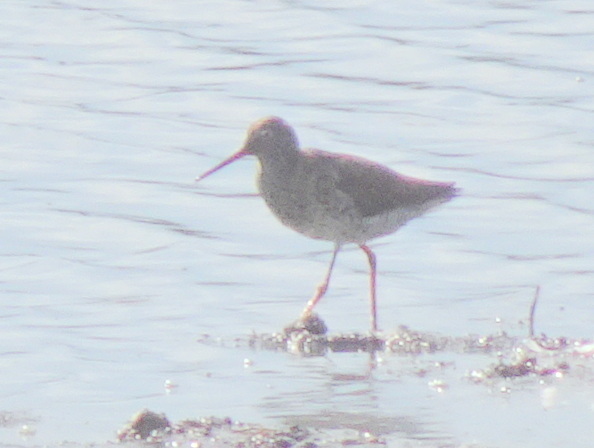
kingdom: Animalia
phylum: Chordata
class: Aves
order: Charadriiformes
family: Scolopacidae
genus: Tringa
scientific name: Tringa totanus
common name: Common redshank
